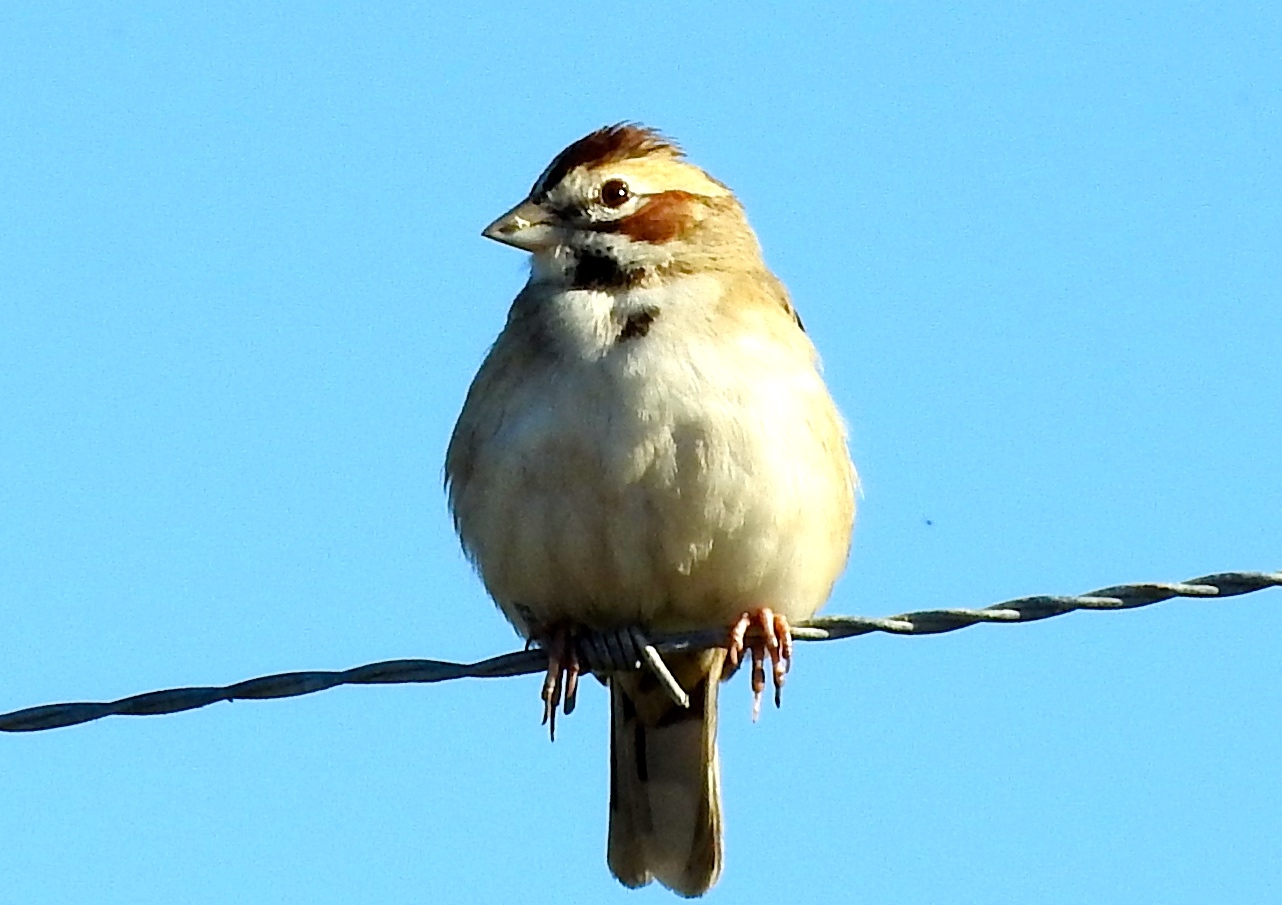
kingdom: Animalia
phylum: Chordata
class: Aves
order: Passeriformes
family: Passerellidae
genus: Chondestes
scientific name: Chondestes grammacus
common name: Lark sparrow
